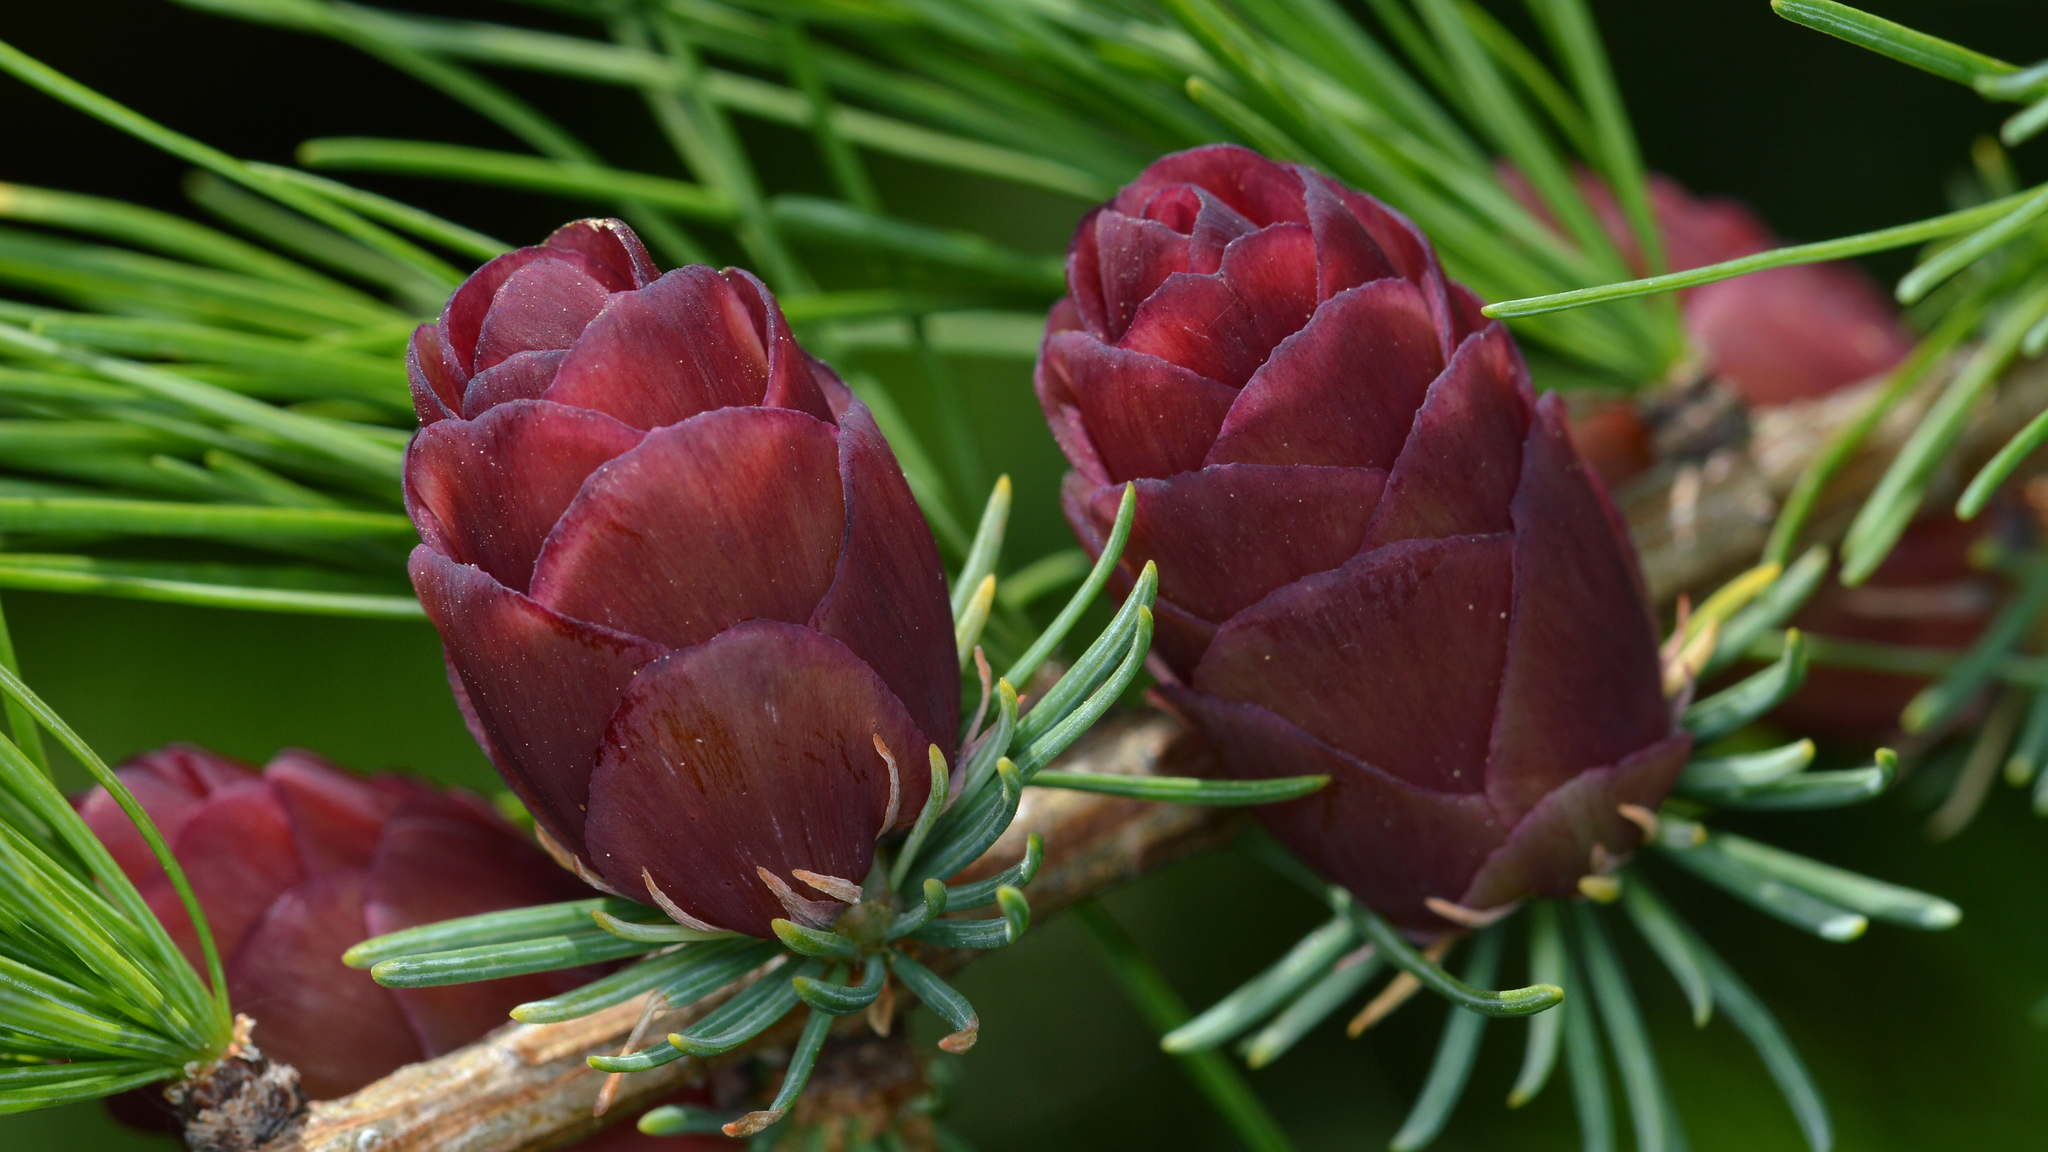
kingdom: Plantae
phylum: Tracheophyta
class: Pinopsida
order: Pinales
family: Pinaceae
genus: Larix
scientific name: Larix laricina
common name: American larch
